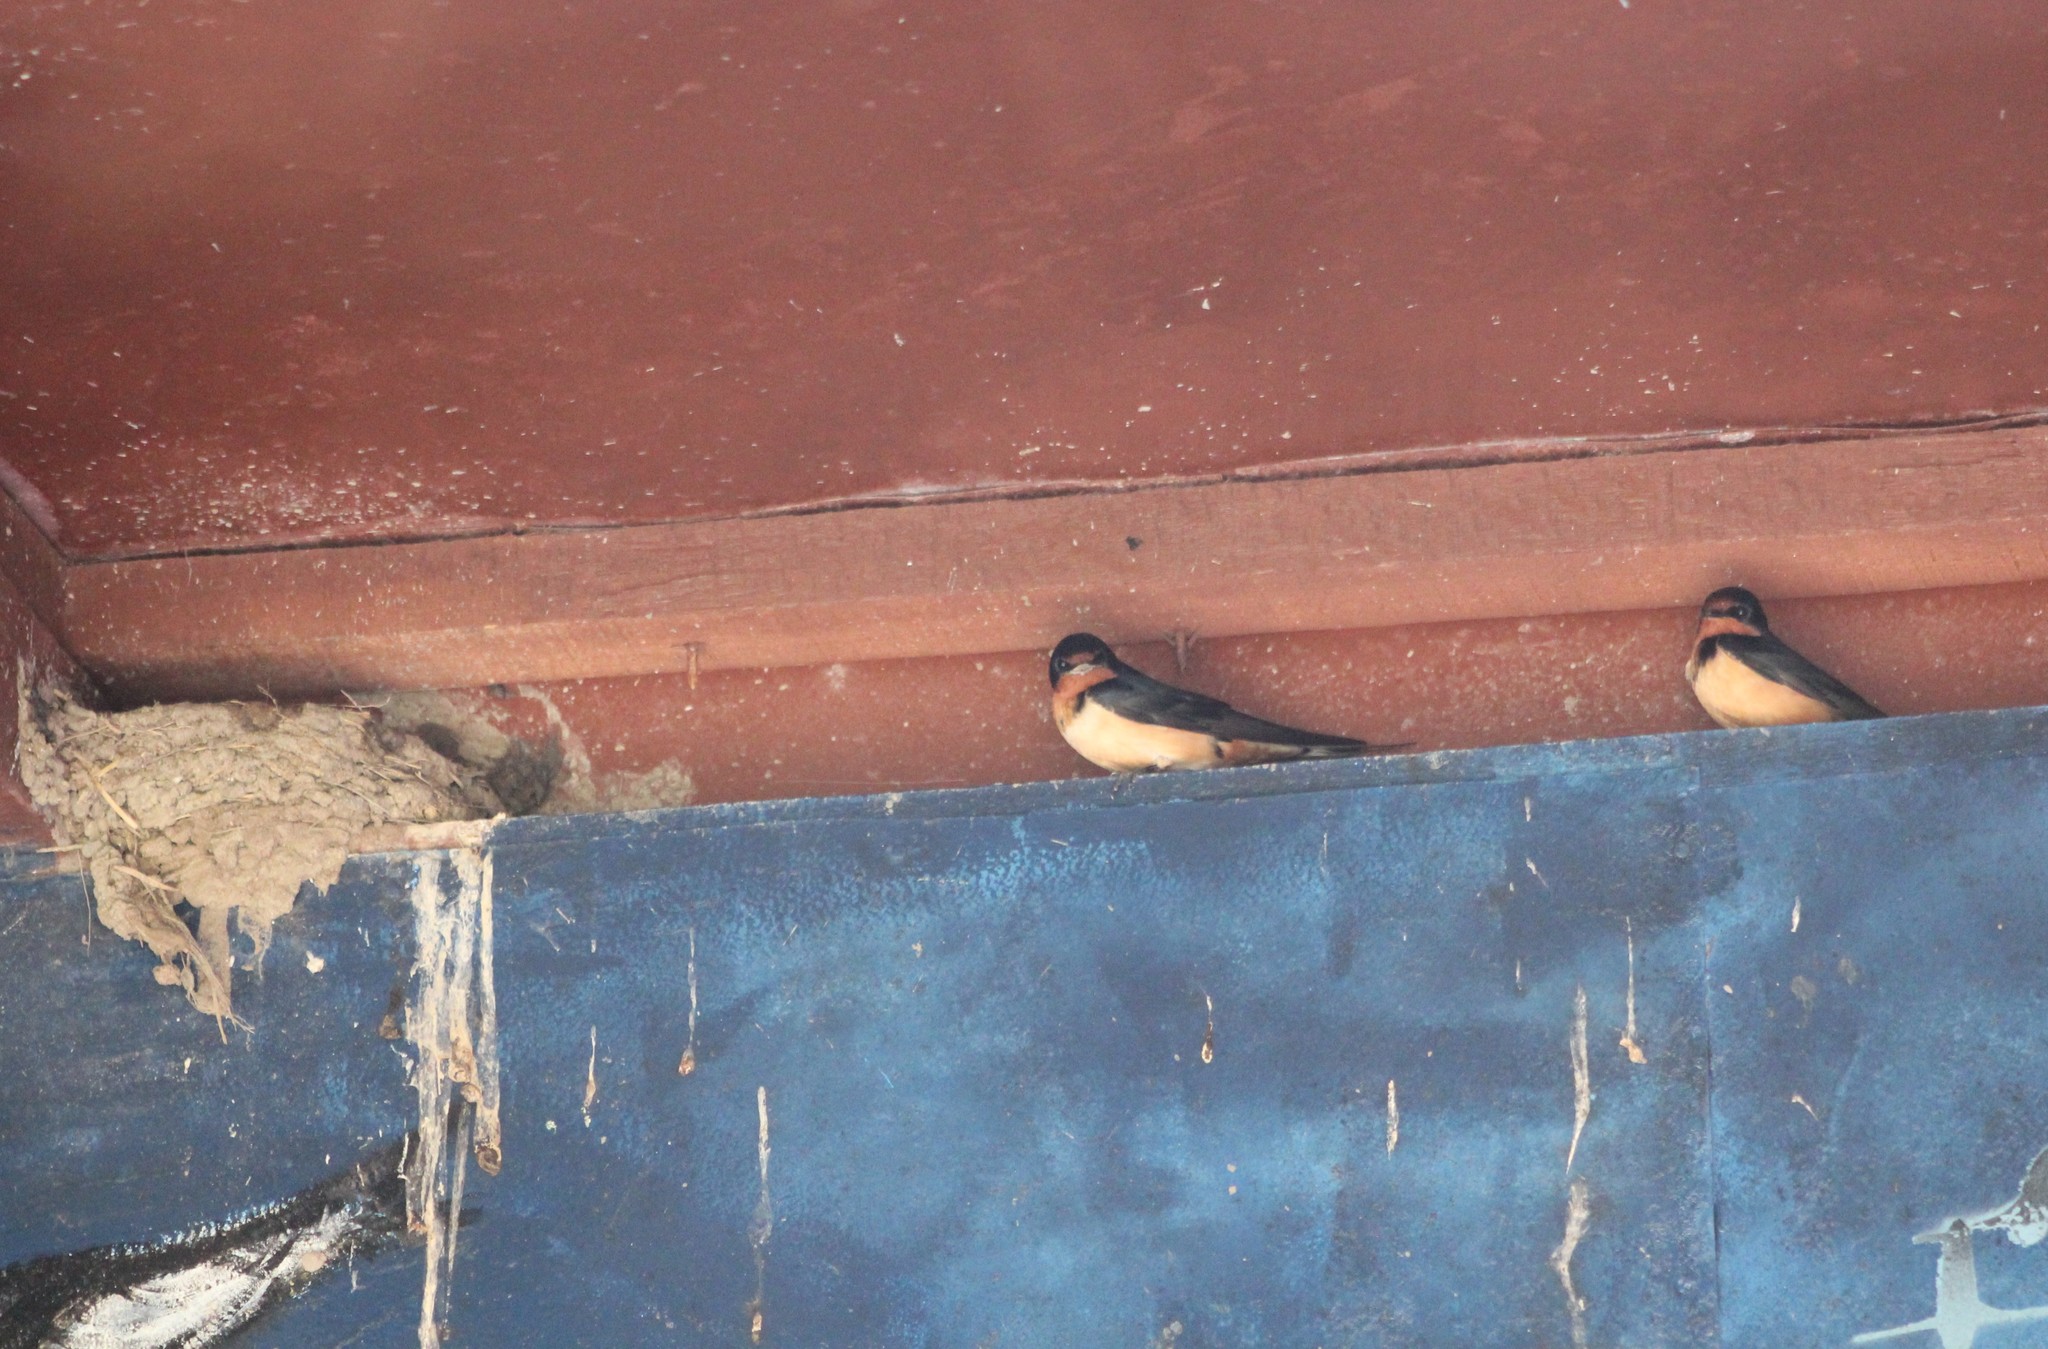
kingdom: Animalia
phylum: Chordata
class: Aves
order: Passeriformes
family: Hirundinidae
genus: Hirundo
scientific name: Hirundo rustica
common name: Barn swallow
